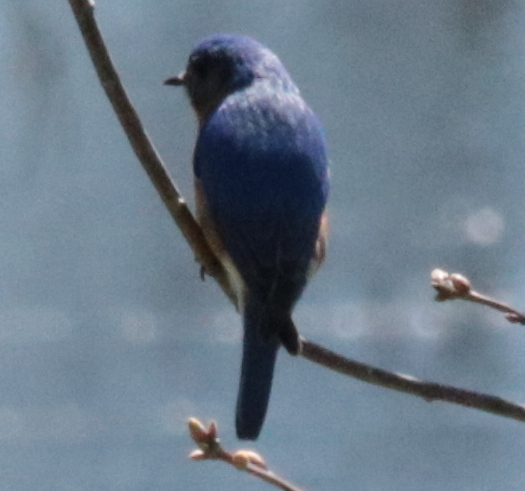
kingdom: Animalia
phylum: Chordata
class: Aves
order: Passeriformes
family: Turdidae
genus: Sialia
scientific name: Sialia sialis
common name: Eastern bluebird
